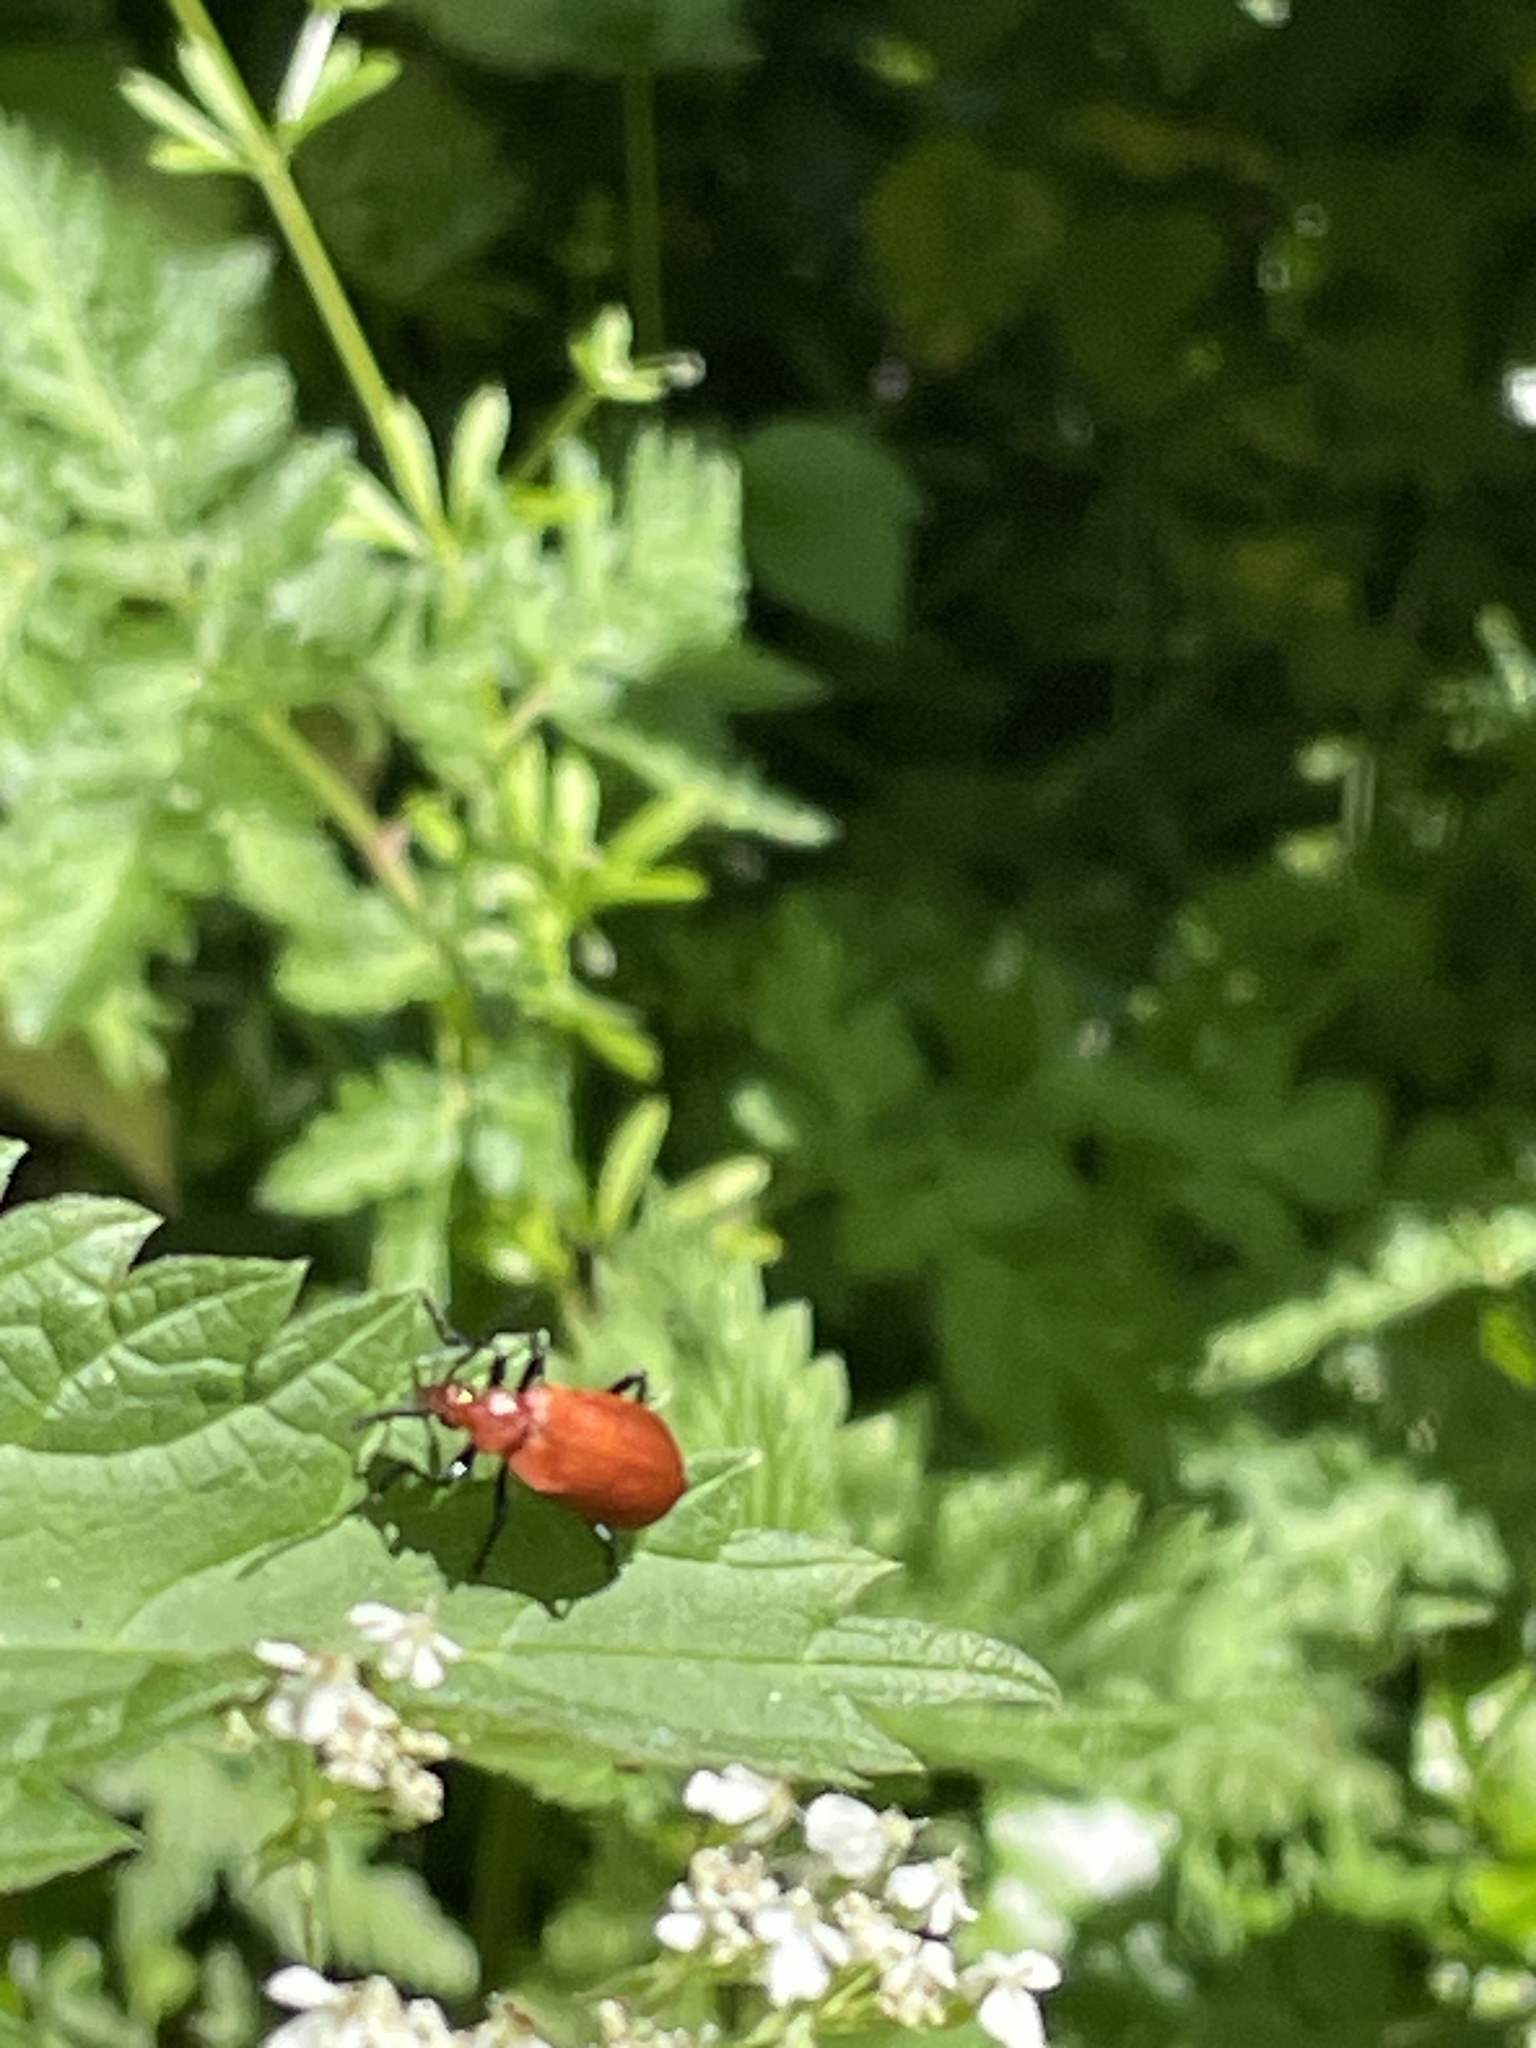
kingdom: Animalia
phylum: Arthropoda
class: Insecta
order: Coleoptera
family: Pyrochroidae
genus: Pyrochroa
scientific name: Pyrochroa serraticornis
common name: Red-headed cardinal beetle
